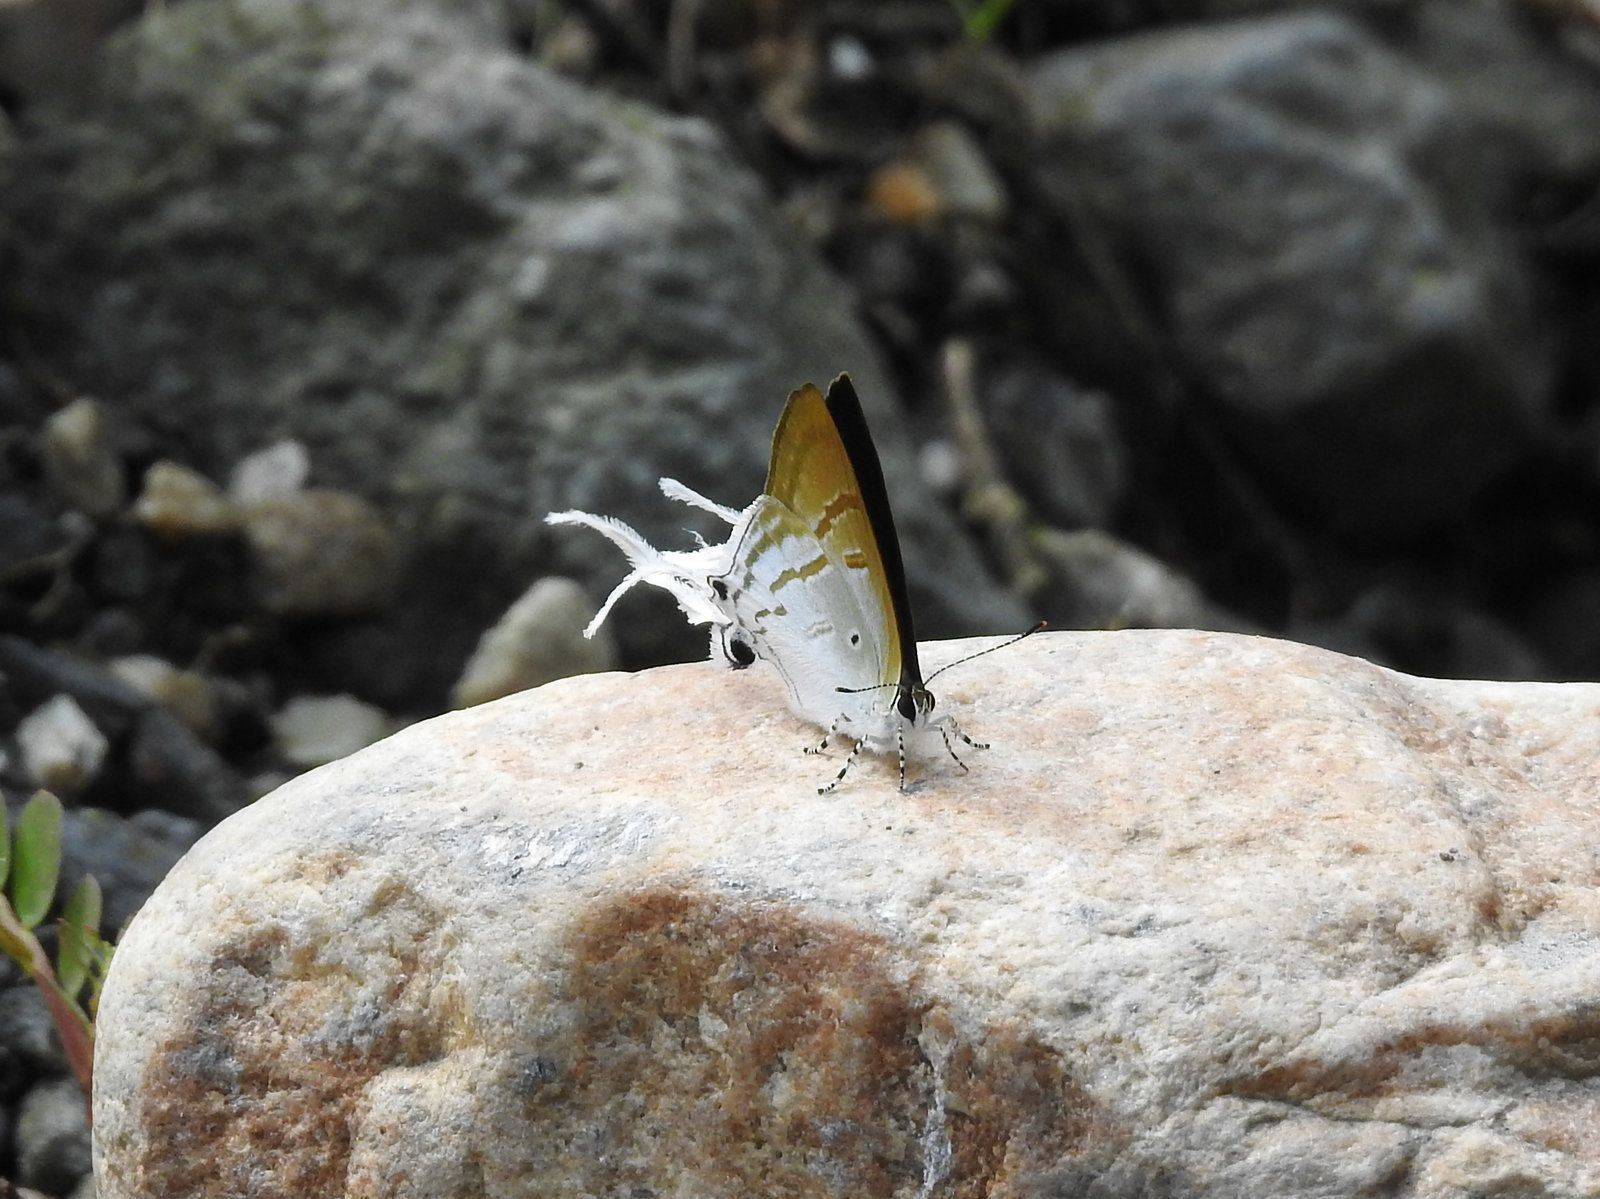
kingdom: Animalia
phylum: Arthropoda
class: Insecta
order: Lepidoptera
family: Lycaenidae
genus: Zeltus
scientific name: Zeltus amasa
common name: Fluffy tit
